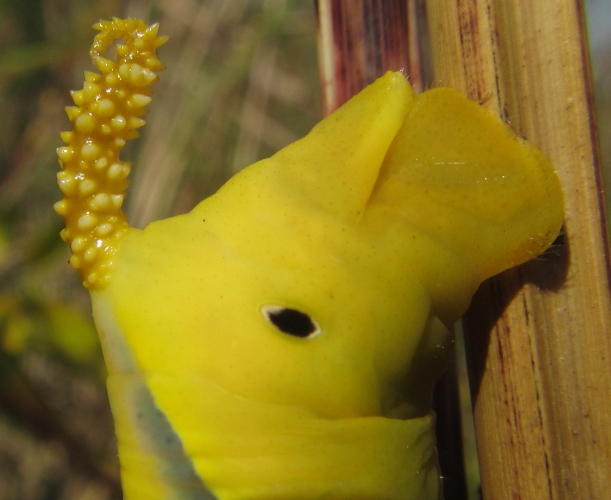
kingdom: Animalia
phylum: Arthropoda
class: Insecta
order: Lepidoptera
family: Sphingidae
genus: Acherontia
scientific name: Acherontia atropos
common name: Death's-head hawk moth
